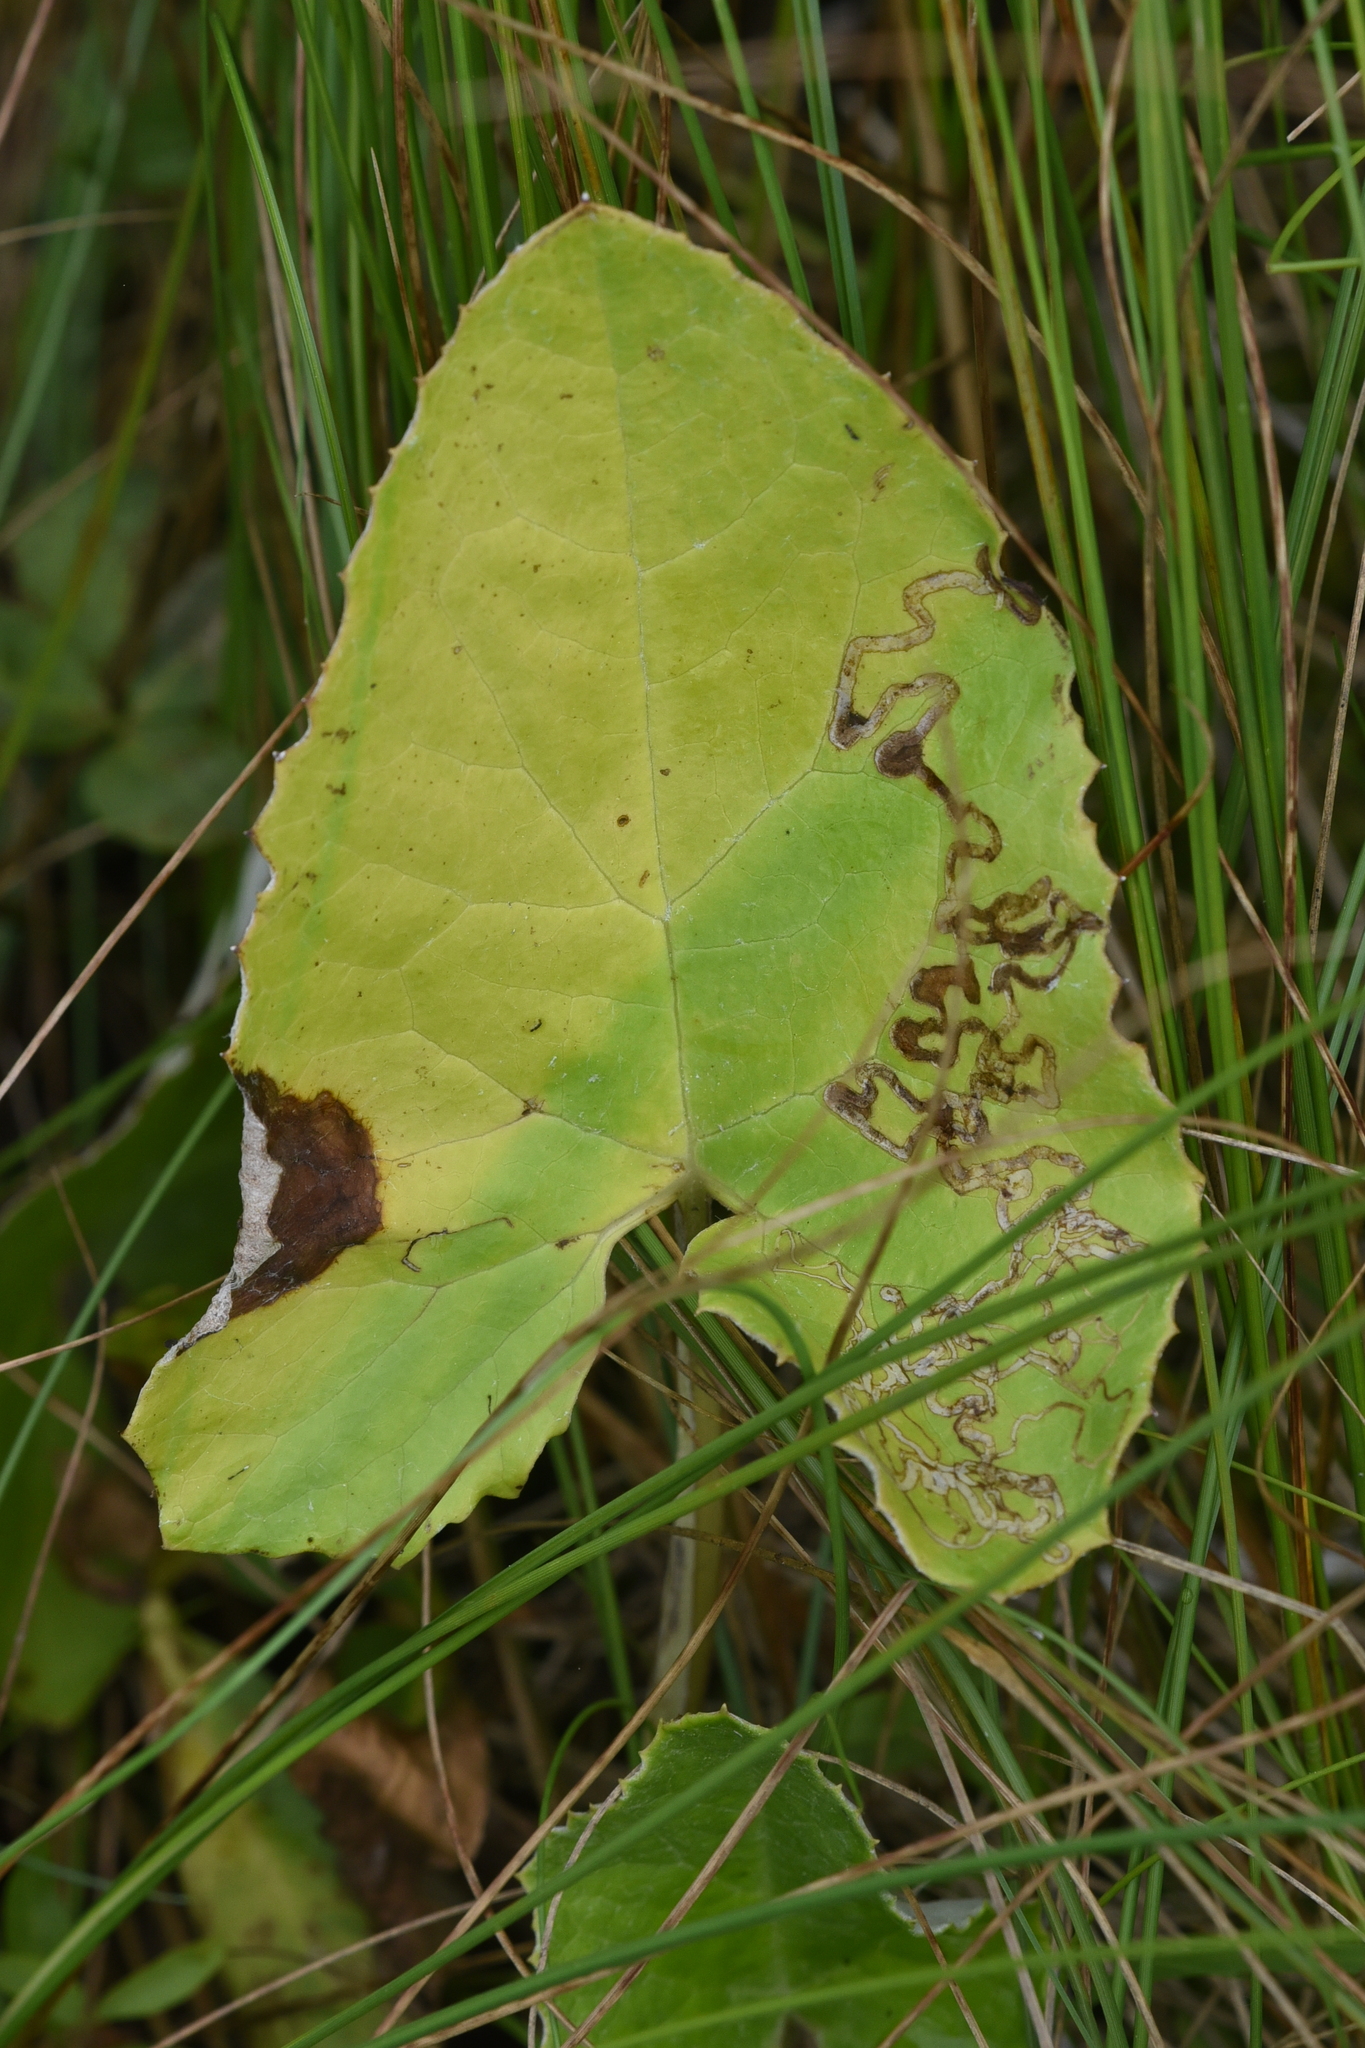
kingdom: Plantae
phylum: Tracheophyta
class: Magnoliopsida
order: Asterales
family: Asteraceae
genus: Petasites
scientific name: Petasites frigidus
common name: Arctic butterbur
